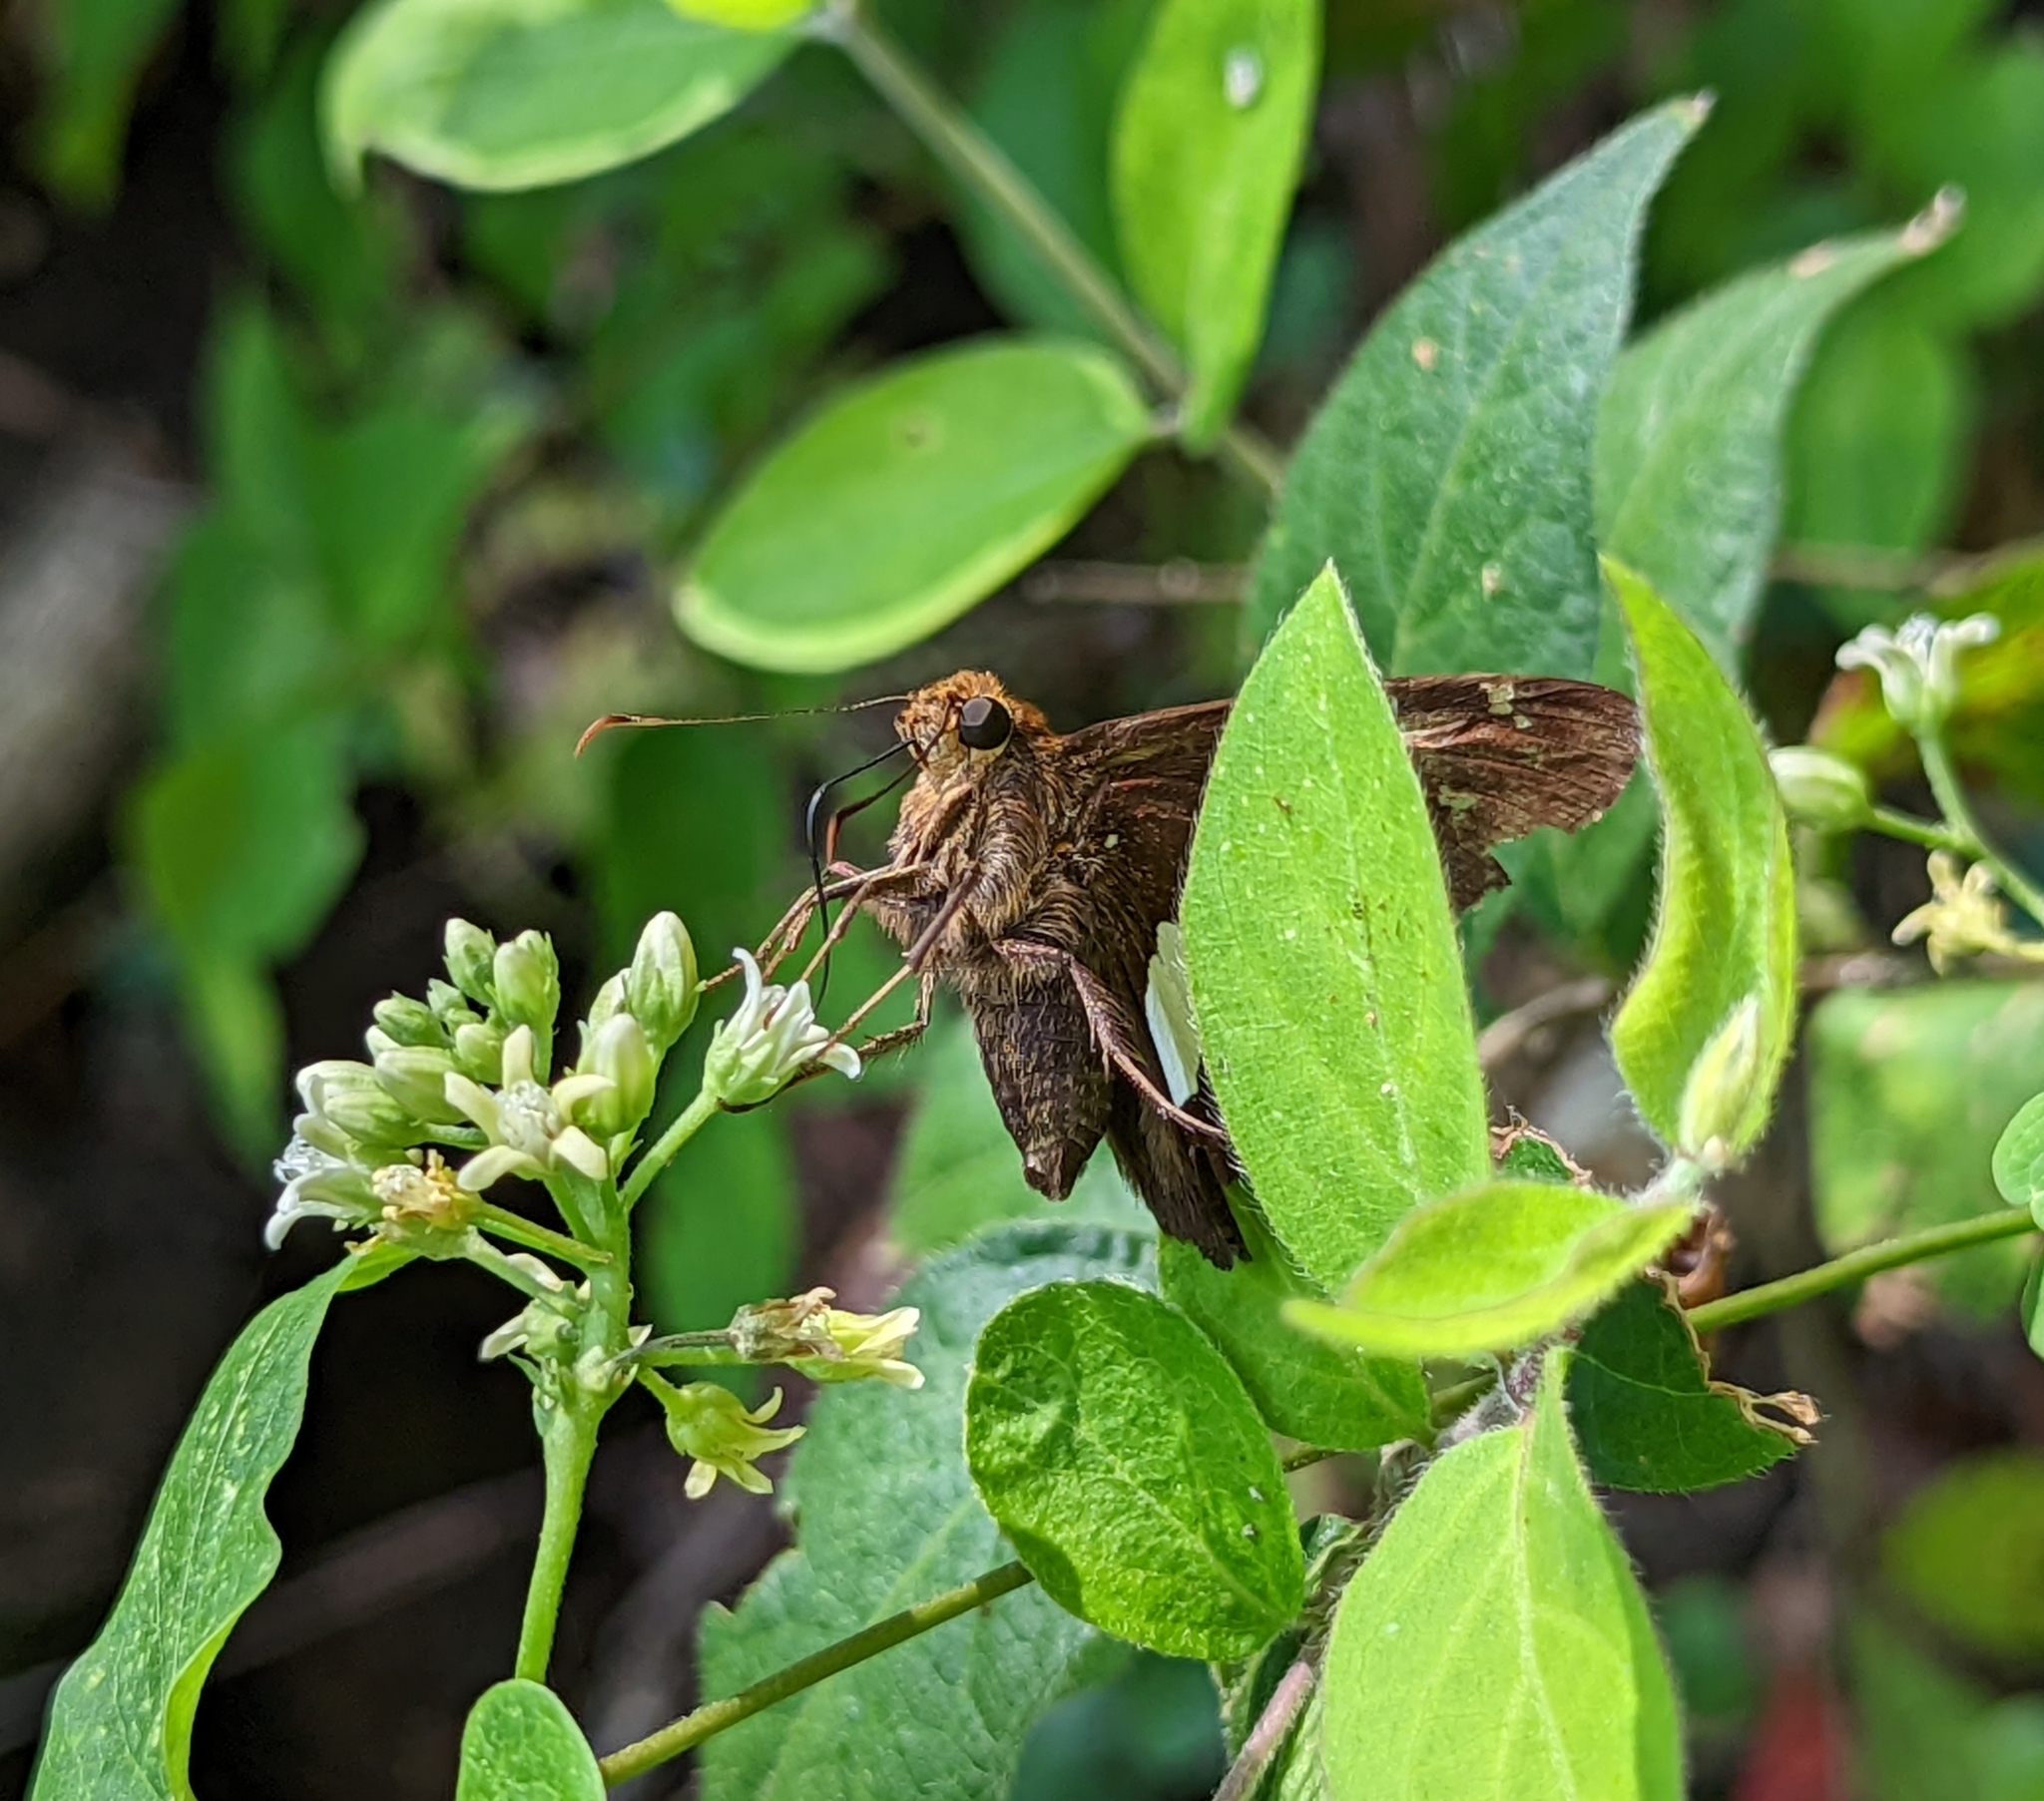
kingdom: Animalia
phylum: Arthropoda
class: Insecta
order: Lepidoptera
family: Hesperiidae
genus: Epargyreus
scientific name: Epargyreus clarus
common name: Silver-spotted skipper
